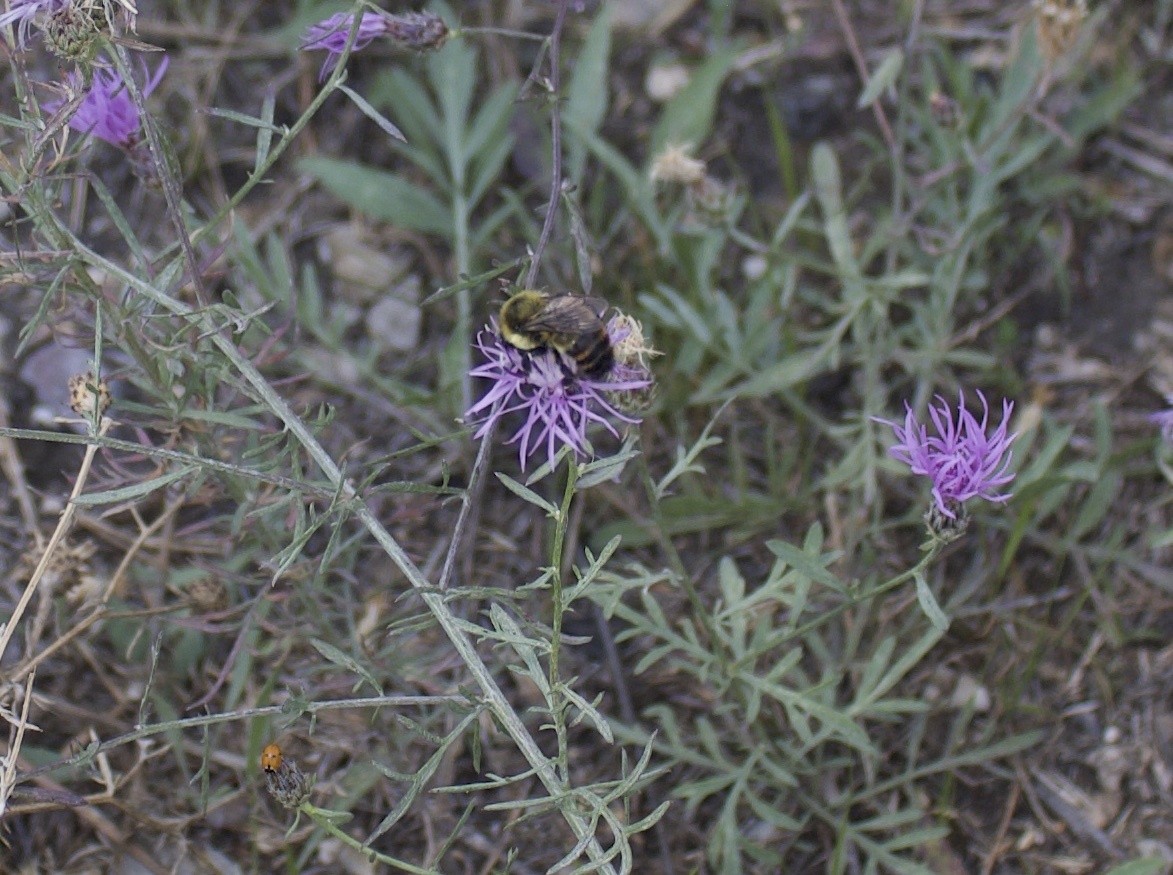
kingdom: Animalia
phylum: Arthropoda
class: Insecta
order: Hymenoptera
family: Apidae
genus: Bombus
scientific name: Bombus rufocinctus
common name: Red-belted bumble bee
